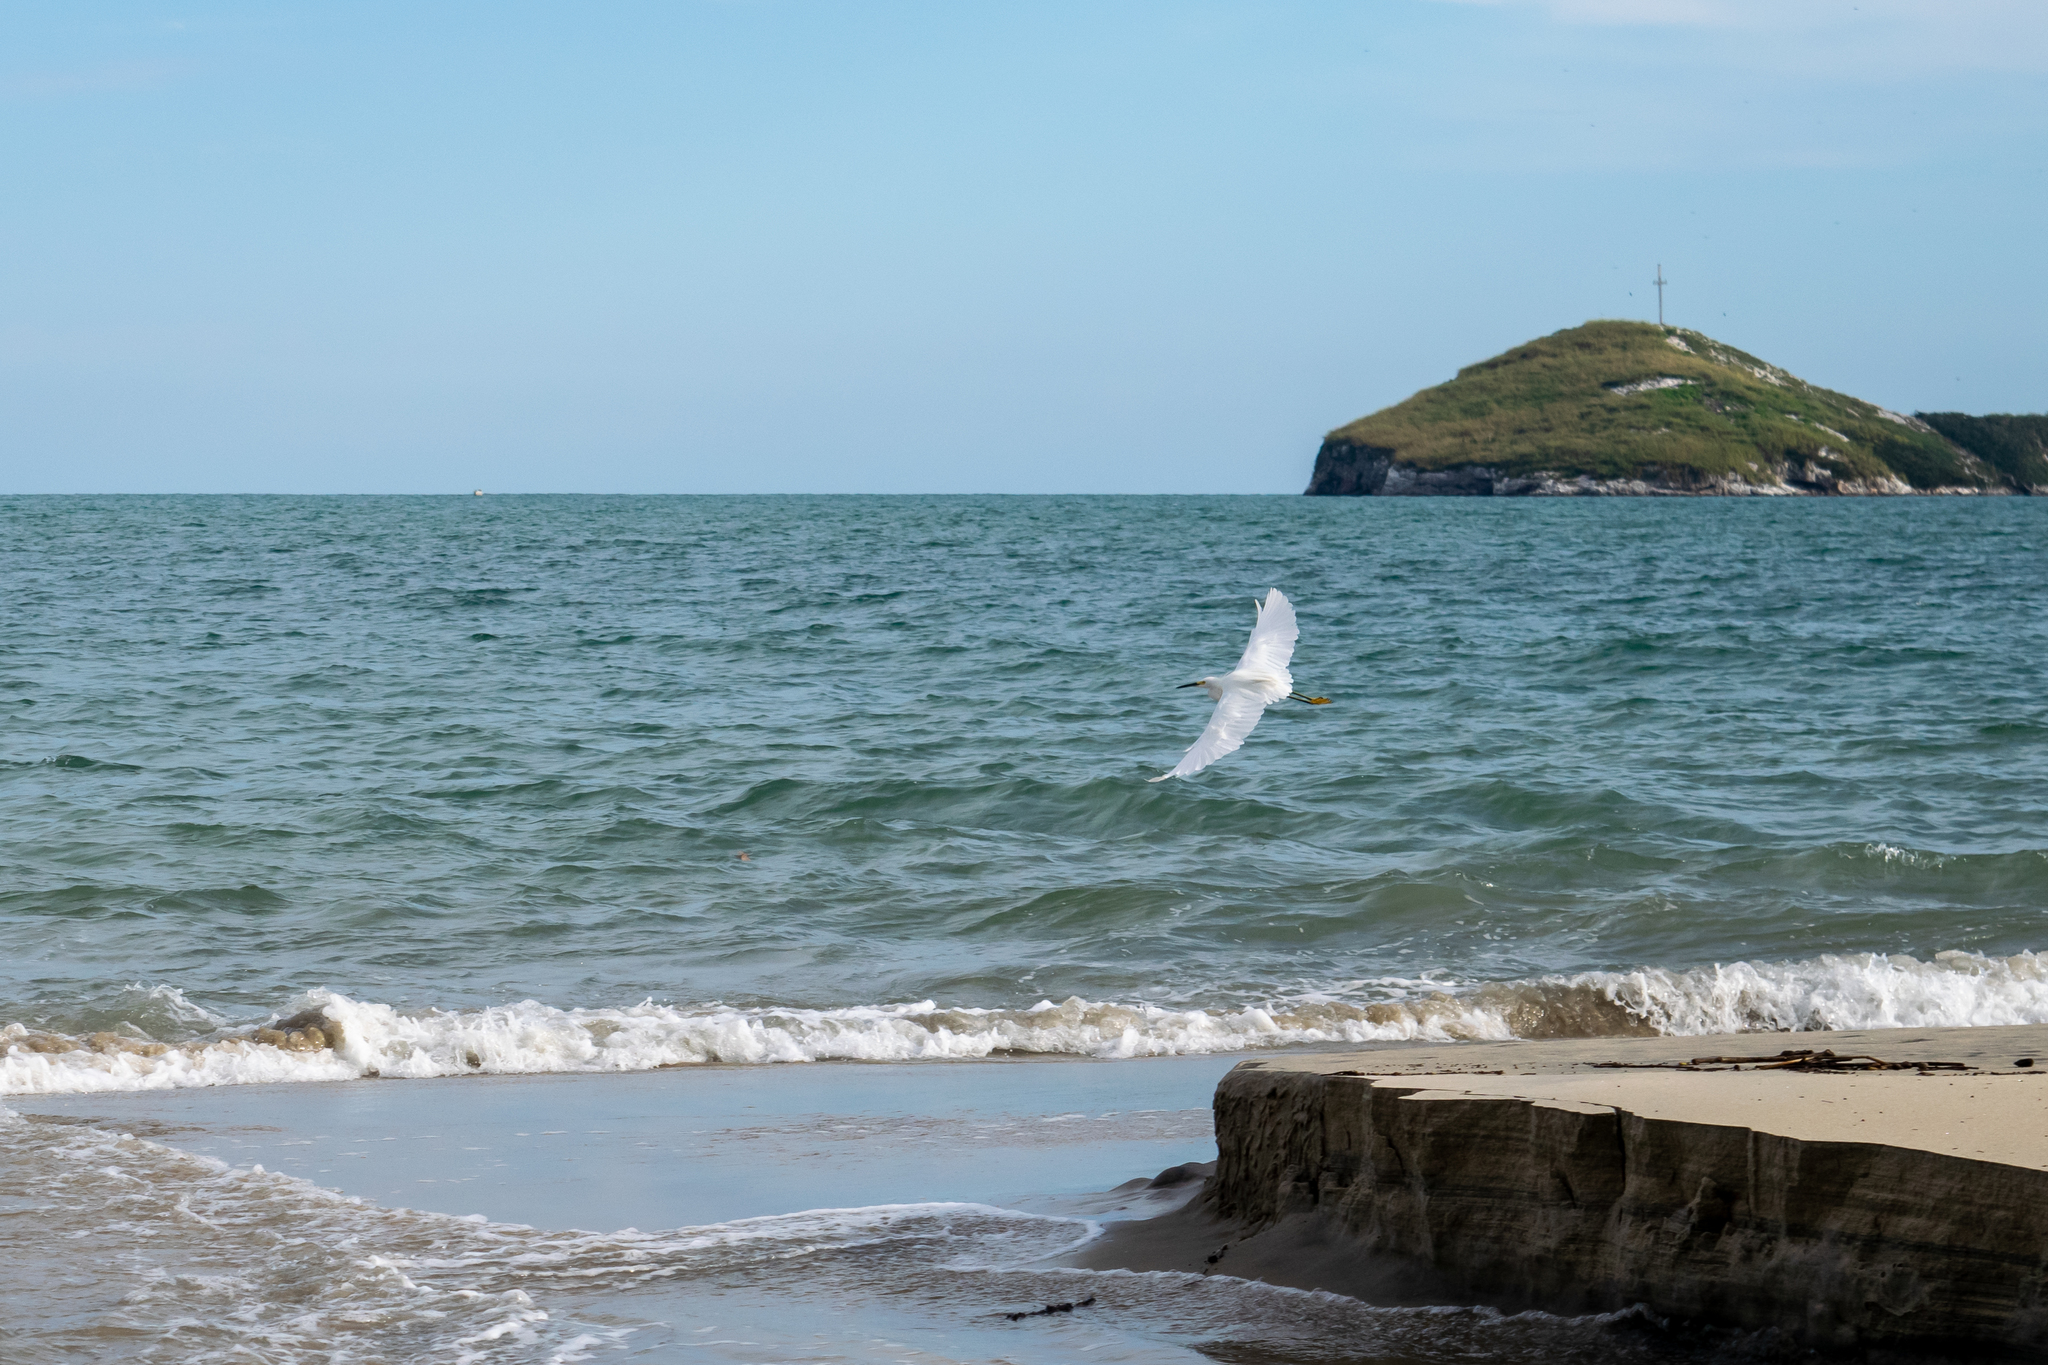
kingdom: Animalia
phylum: Chordata
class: Aves
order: Pelecaniformes
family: Ardeidae
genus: Egretta
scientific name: Egretta thula
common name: Snowy egret
